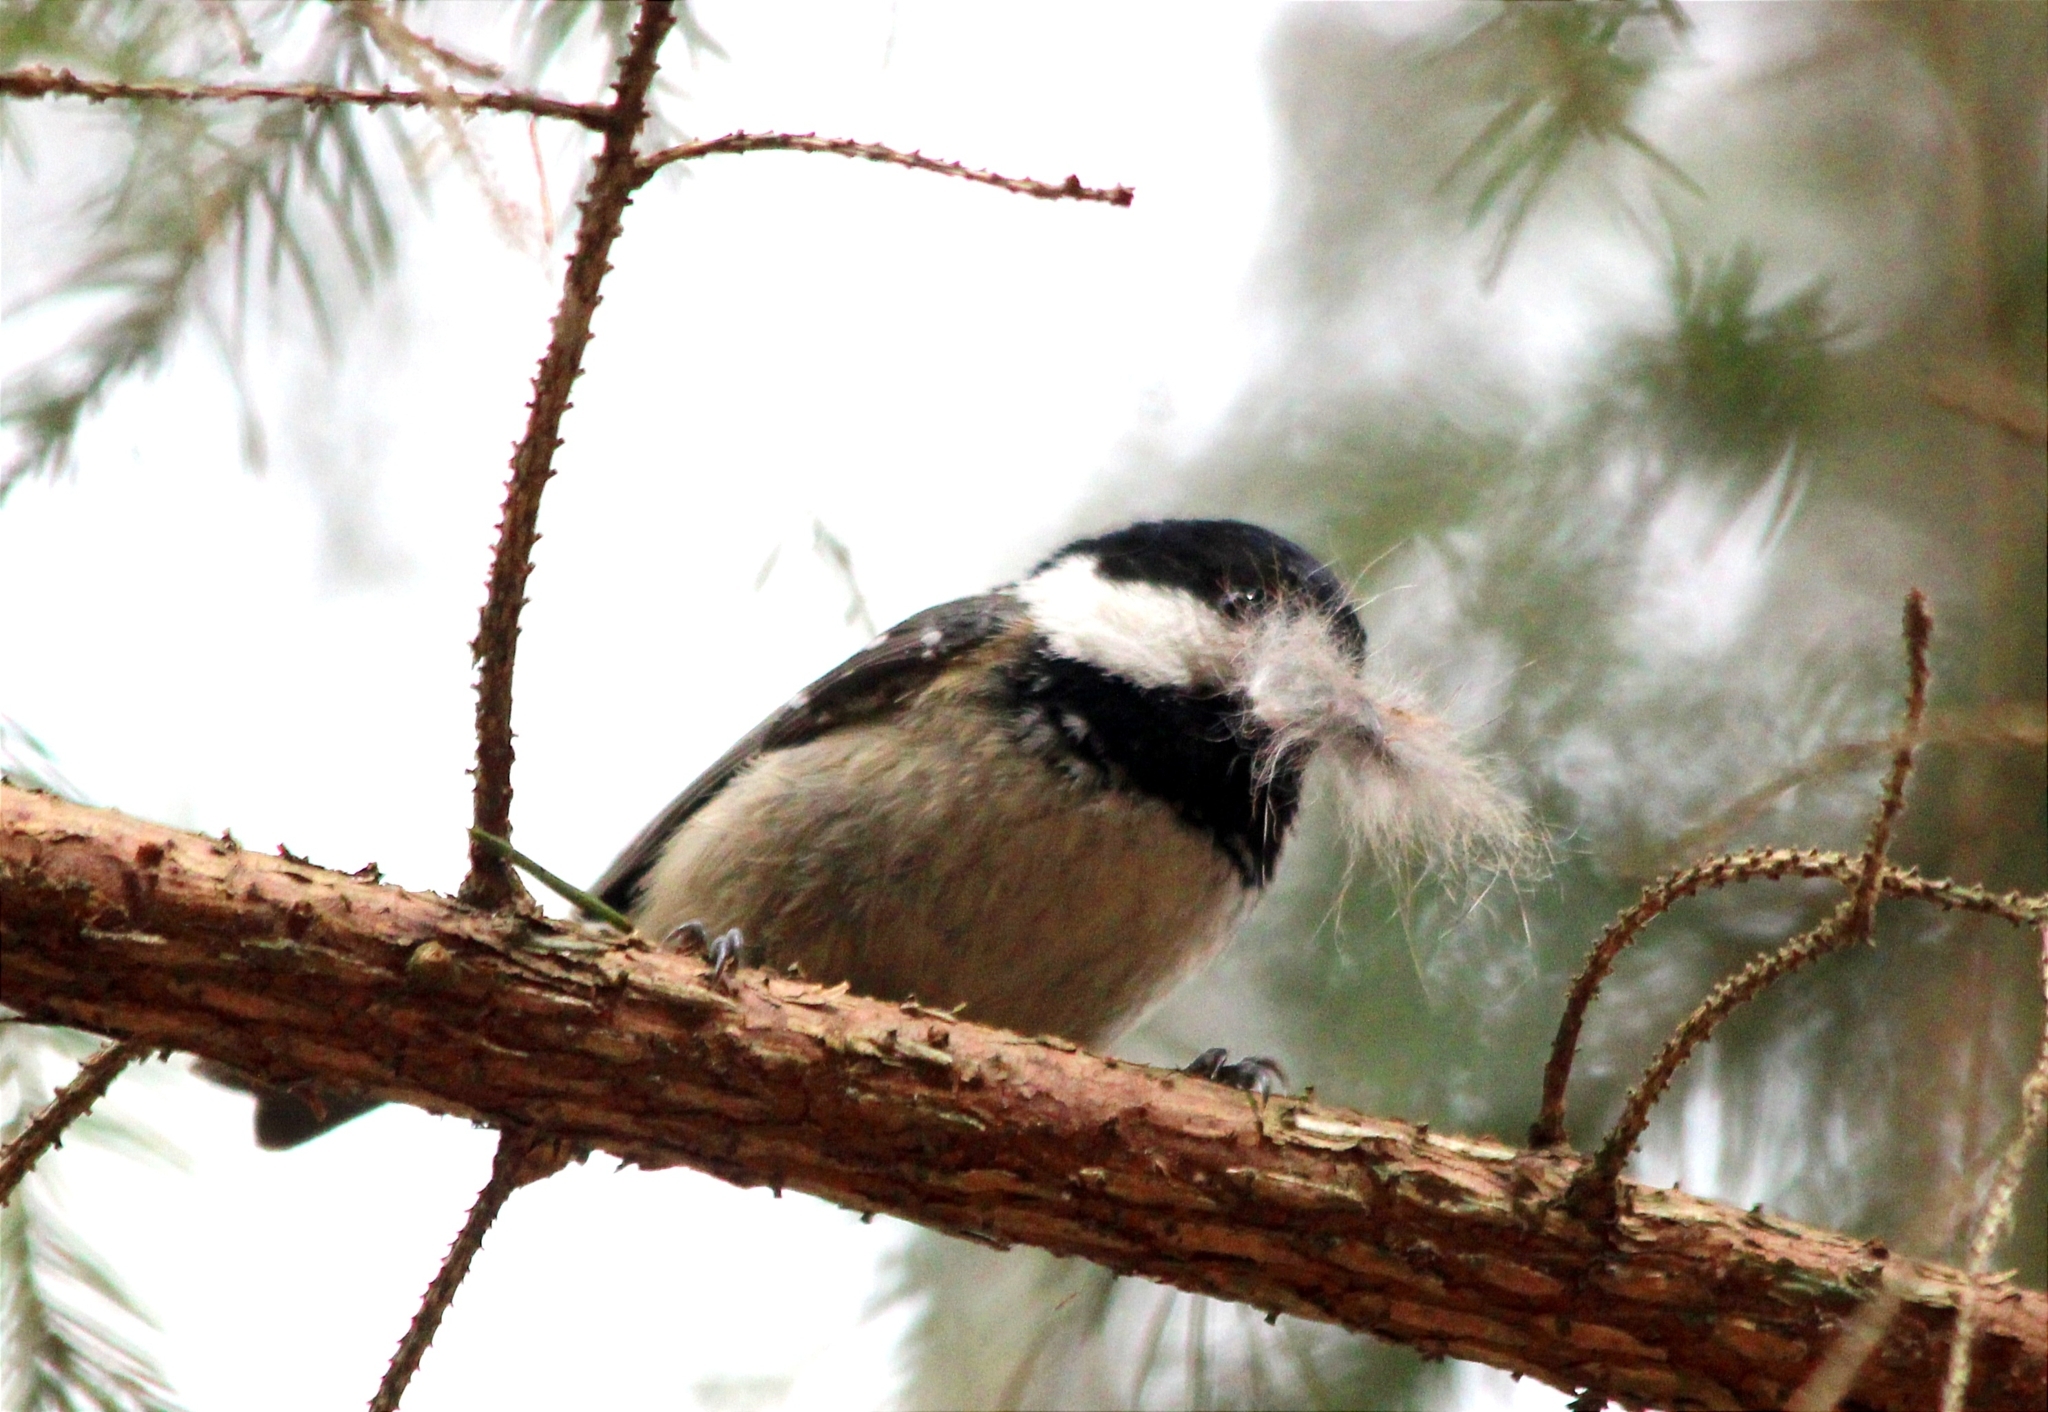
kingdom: Animalia
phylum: Chordata
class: Aves
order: Passeriformes
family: Paridae
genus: Periparus
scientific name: Periparus ater
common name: Coal tit
